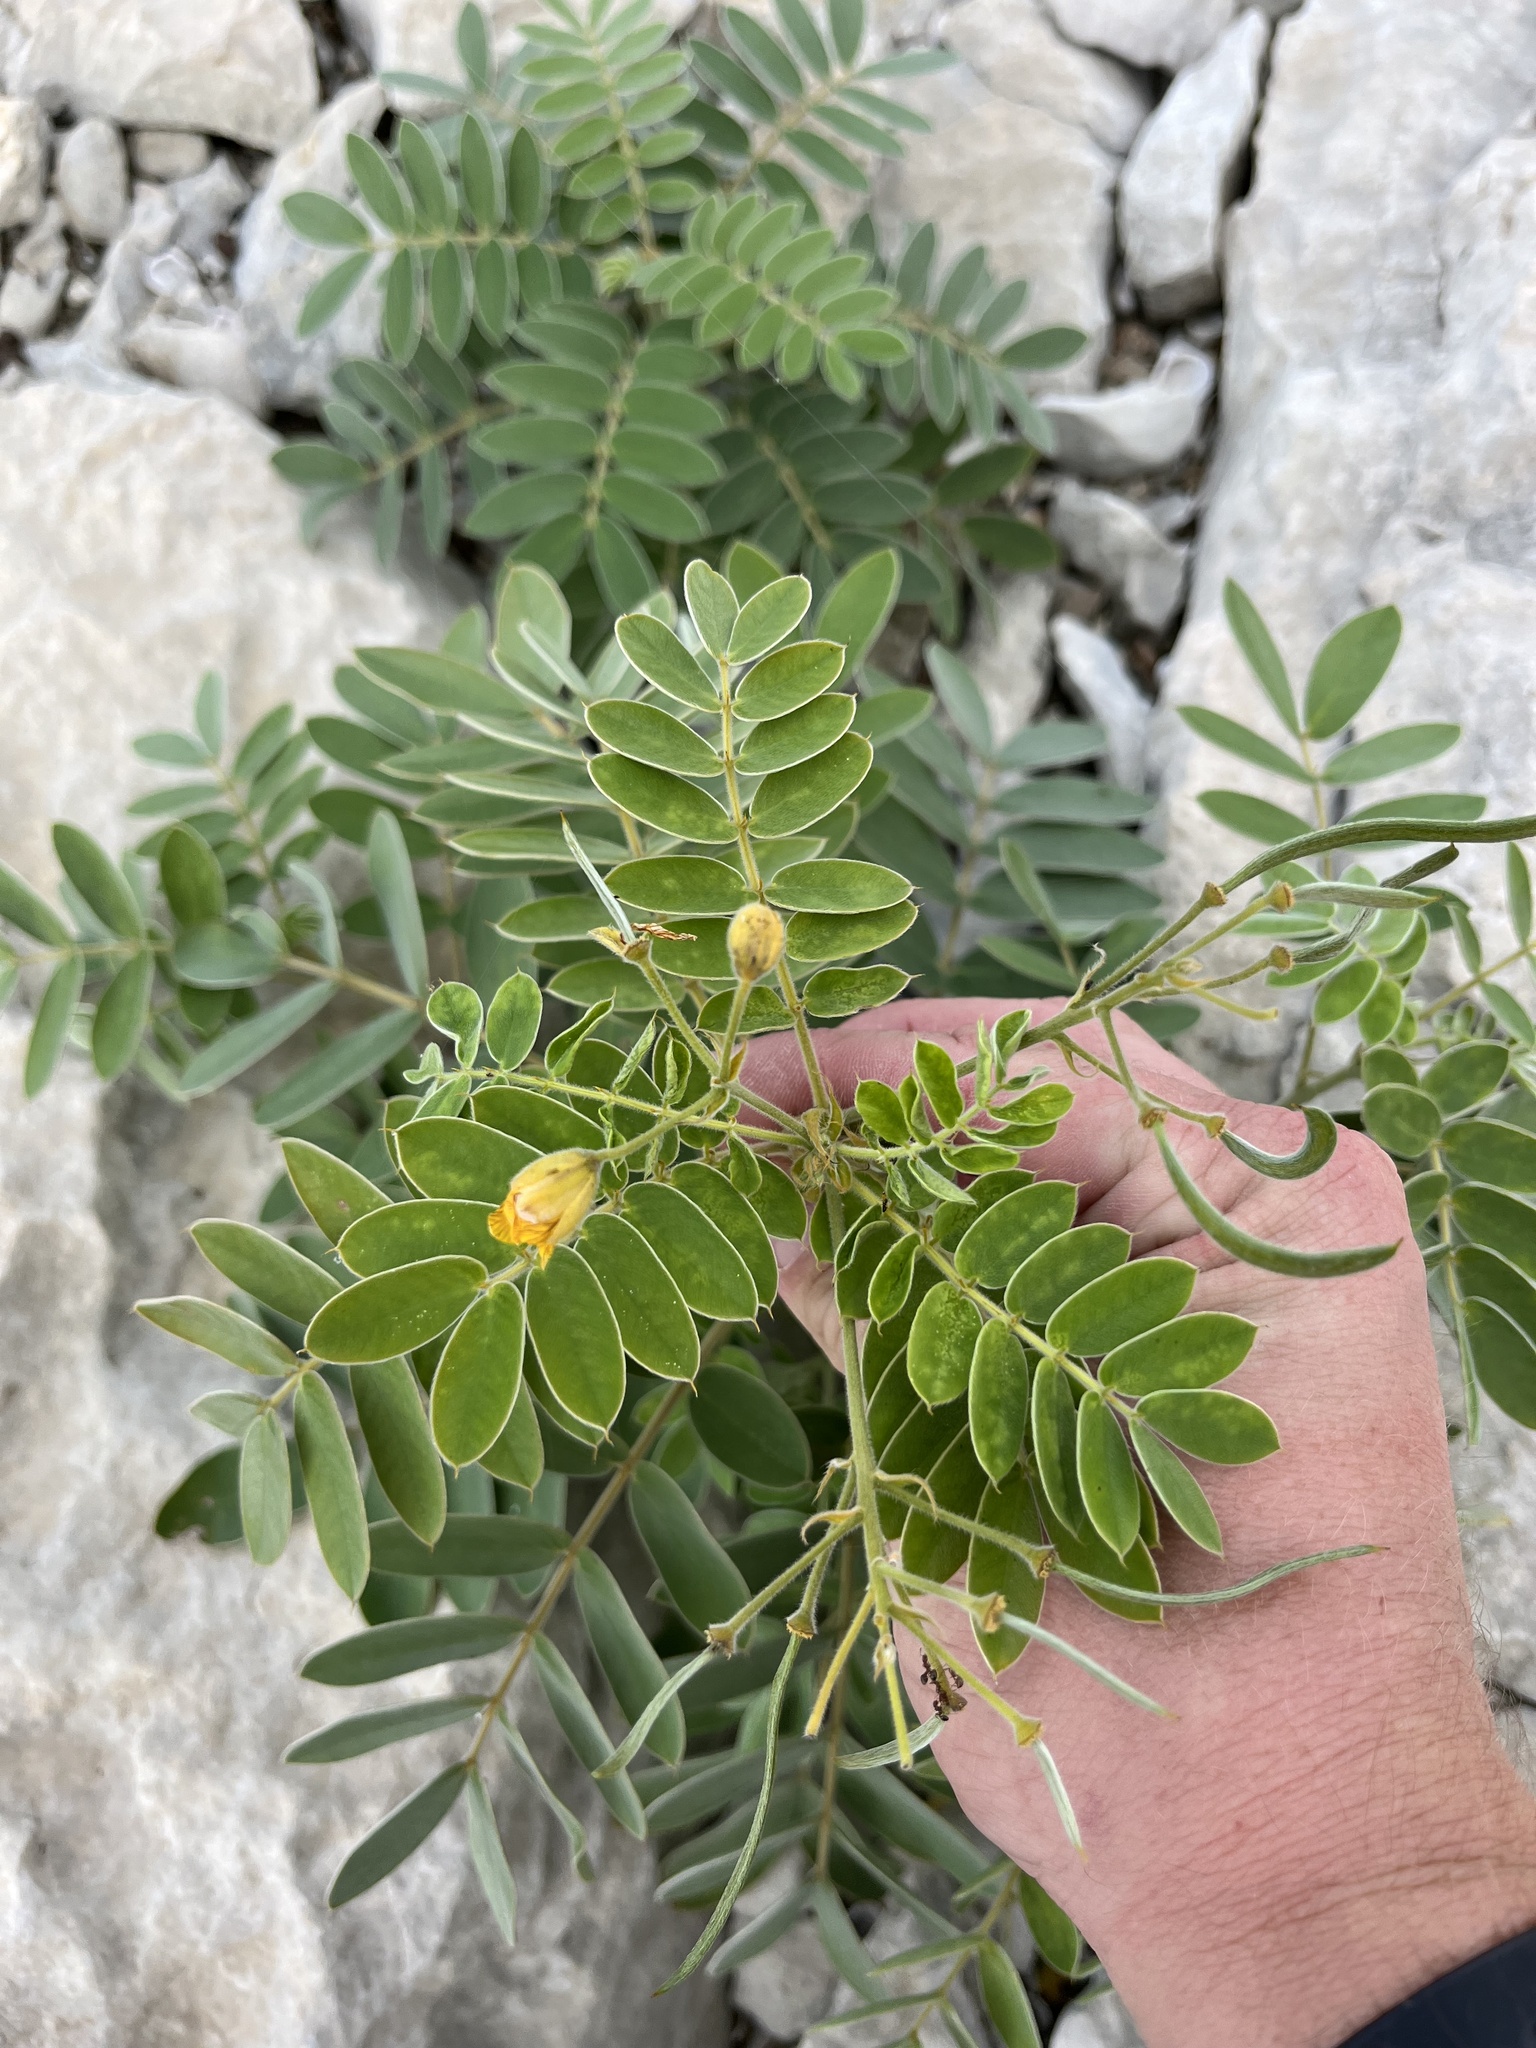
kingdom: Plantae
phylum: Tracheophyta
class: Magnoliopsida
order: Fabales
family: Fabaceae
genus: Senna
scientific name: Senna lindheimeriana
